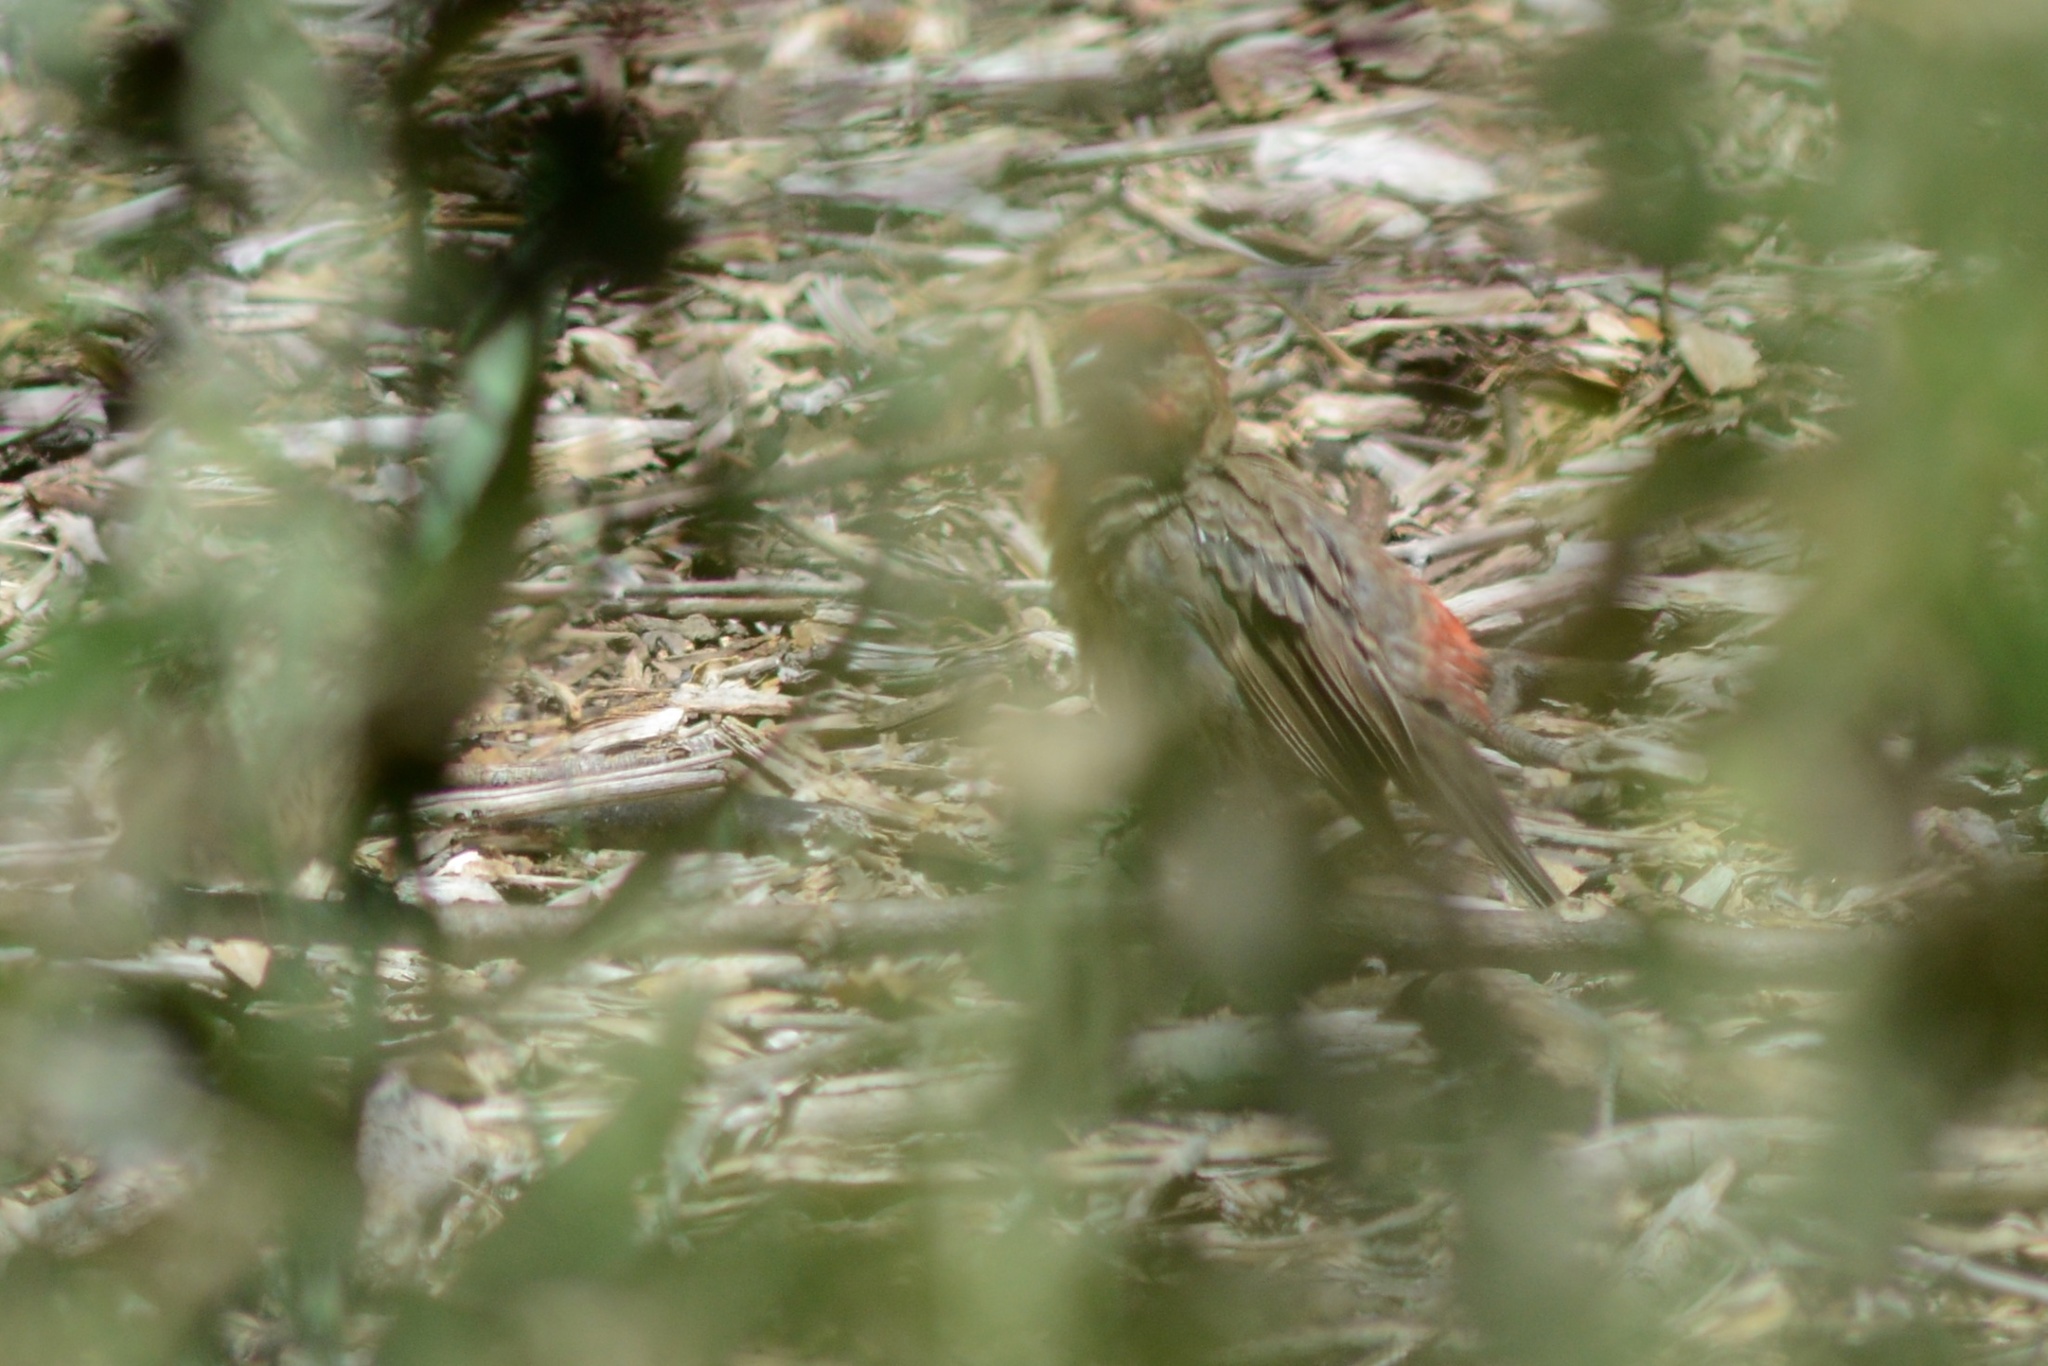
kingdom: Animalia
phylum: Chordata
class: Aves
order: Passeriformes
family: Fringillidae
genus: Haemorhous
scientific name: Haemorhous mexicanus
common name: House finch
